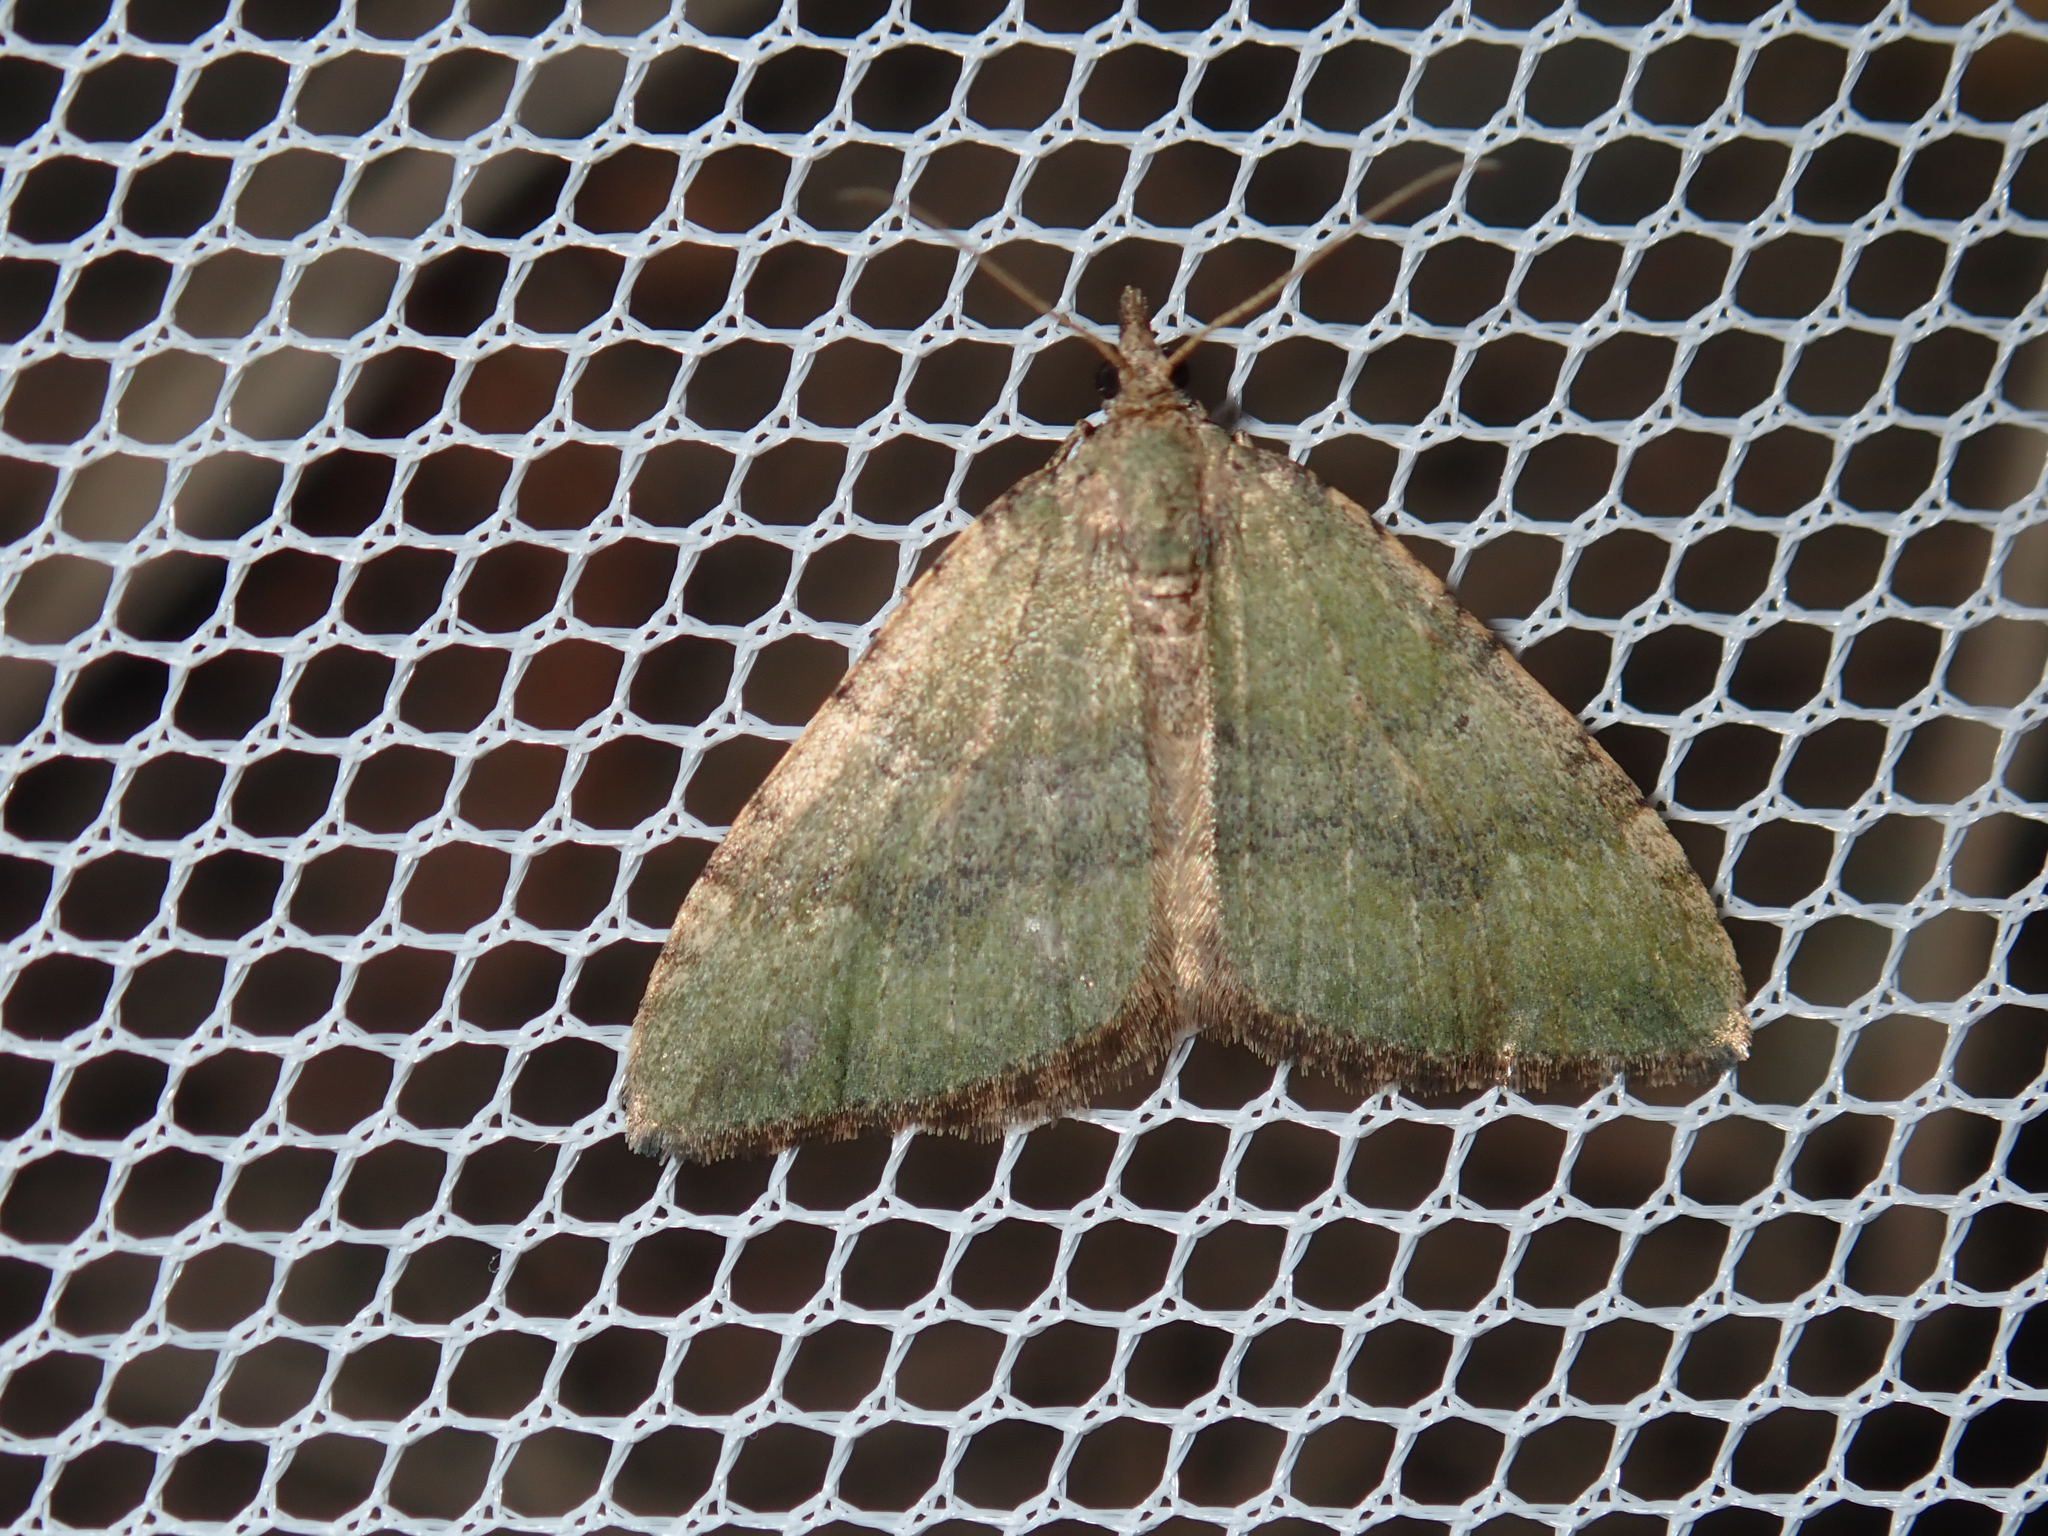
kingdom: Animalia
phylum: Arthropoda
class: Insecta
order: Lepidoptera
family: Geometridae
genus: Epyaxa
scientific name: Epyaxa rosearia
